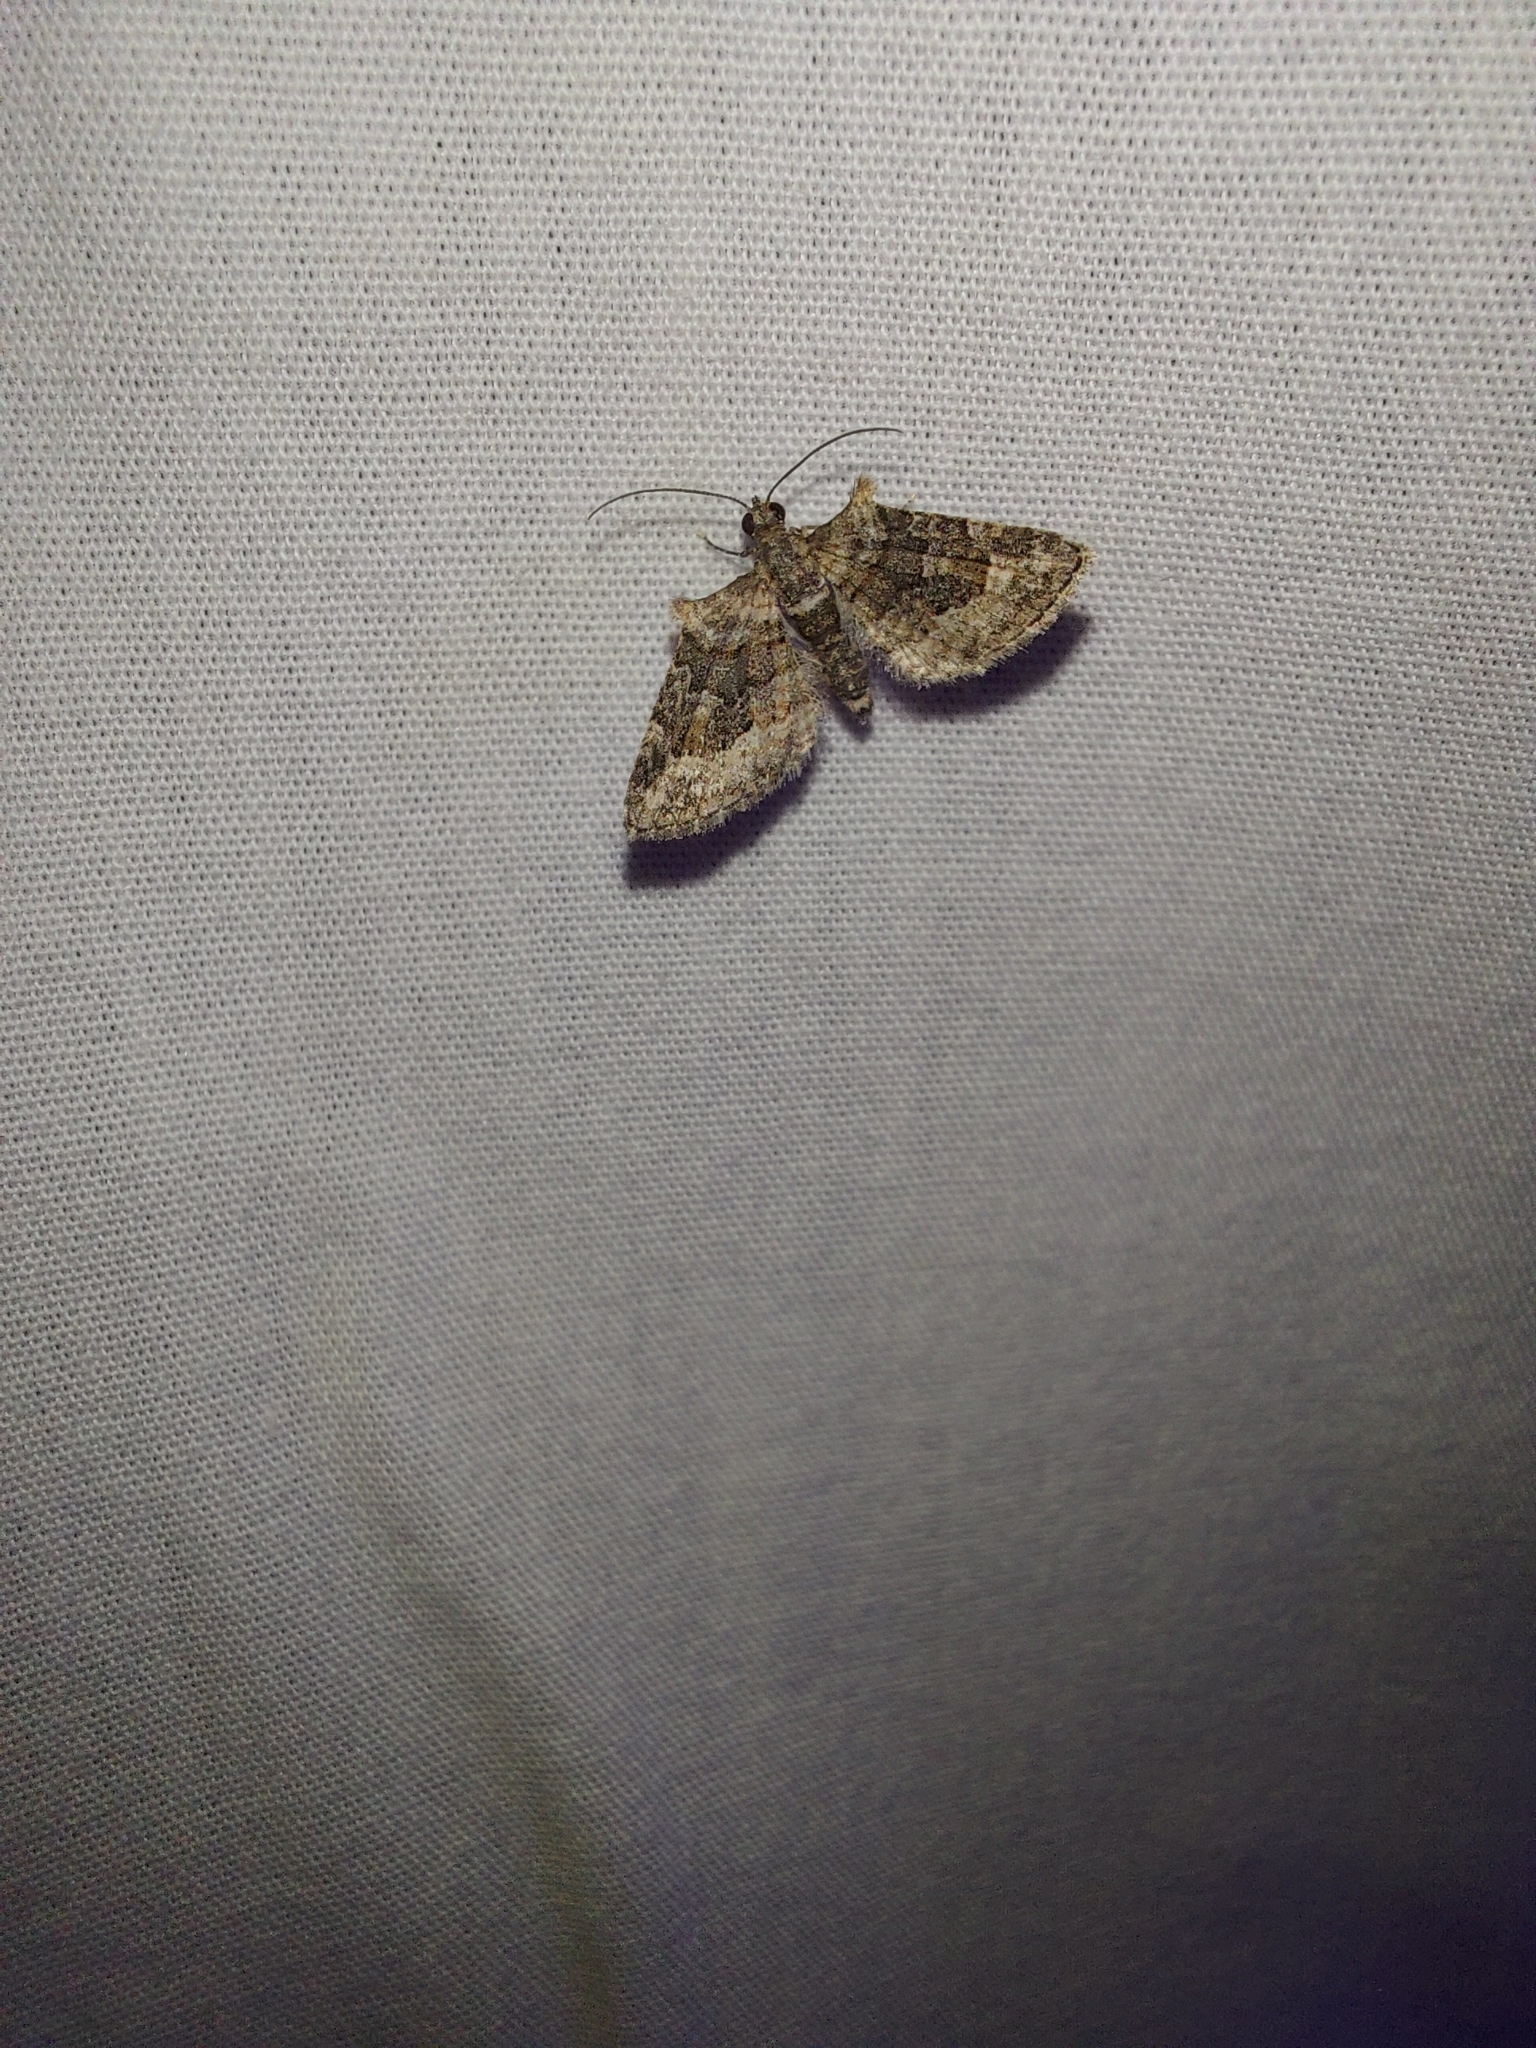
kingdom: Animalia
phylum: Arthropoda
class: Insecta
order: Lepidoptera
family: Geometridae
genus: Phrissogonus
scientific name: Phrissogonus laticostata
